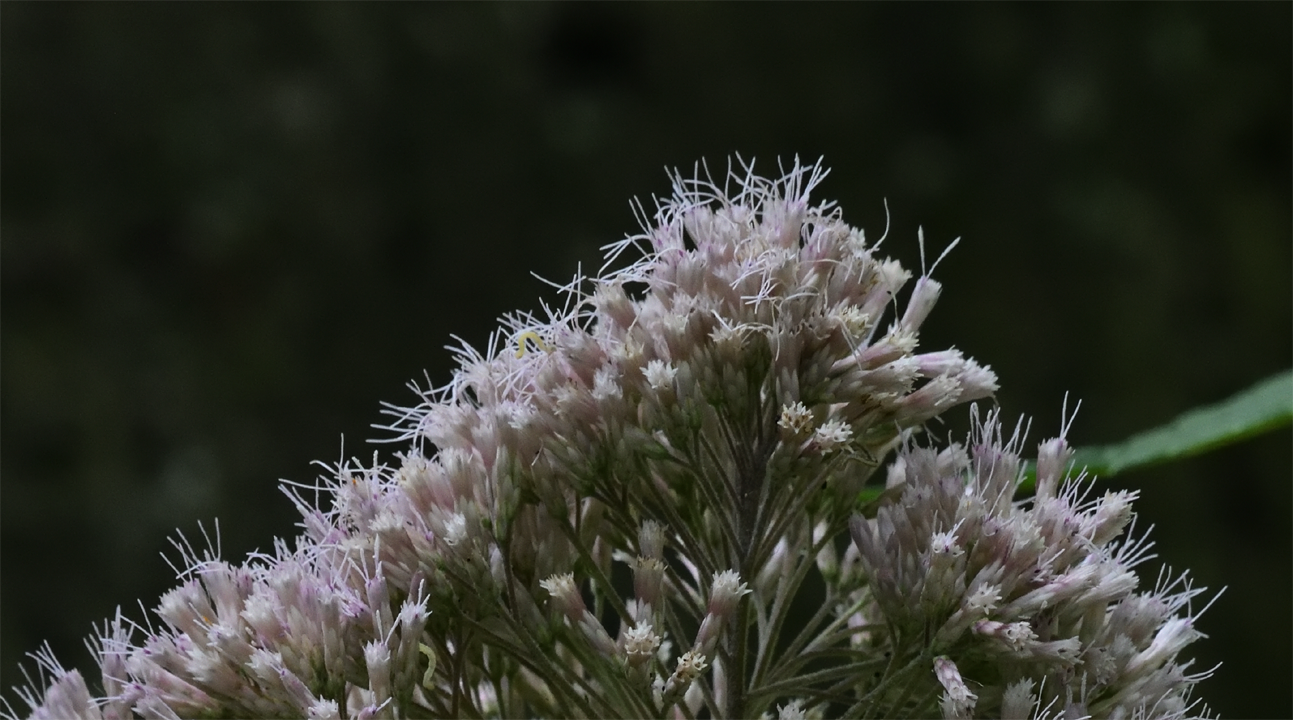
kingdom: Plantae
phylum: Tracheophyta
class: Magnoliopsida
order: Asterales
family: Asteraceae
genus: Eutrochium
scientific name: Eutrochium purpureum
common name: Gravelroot
